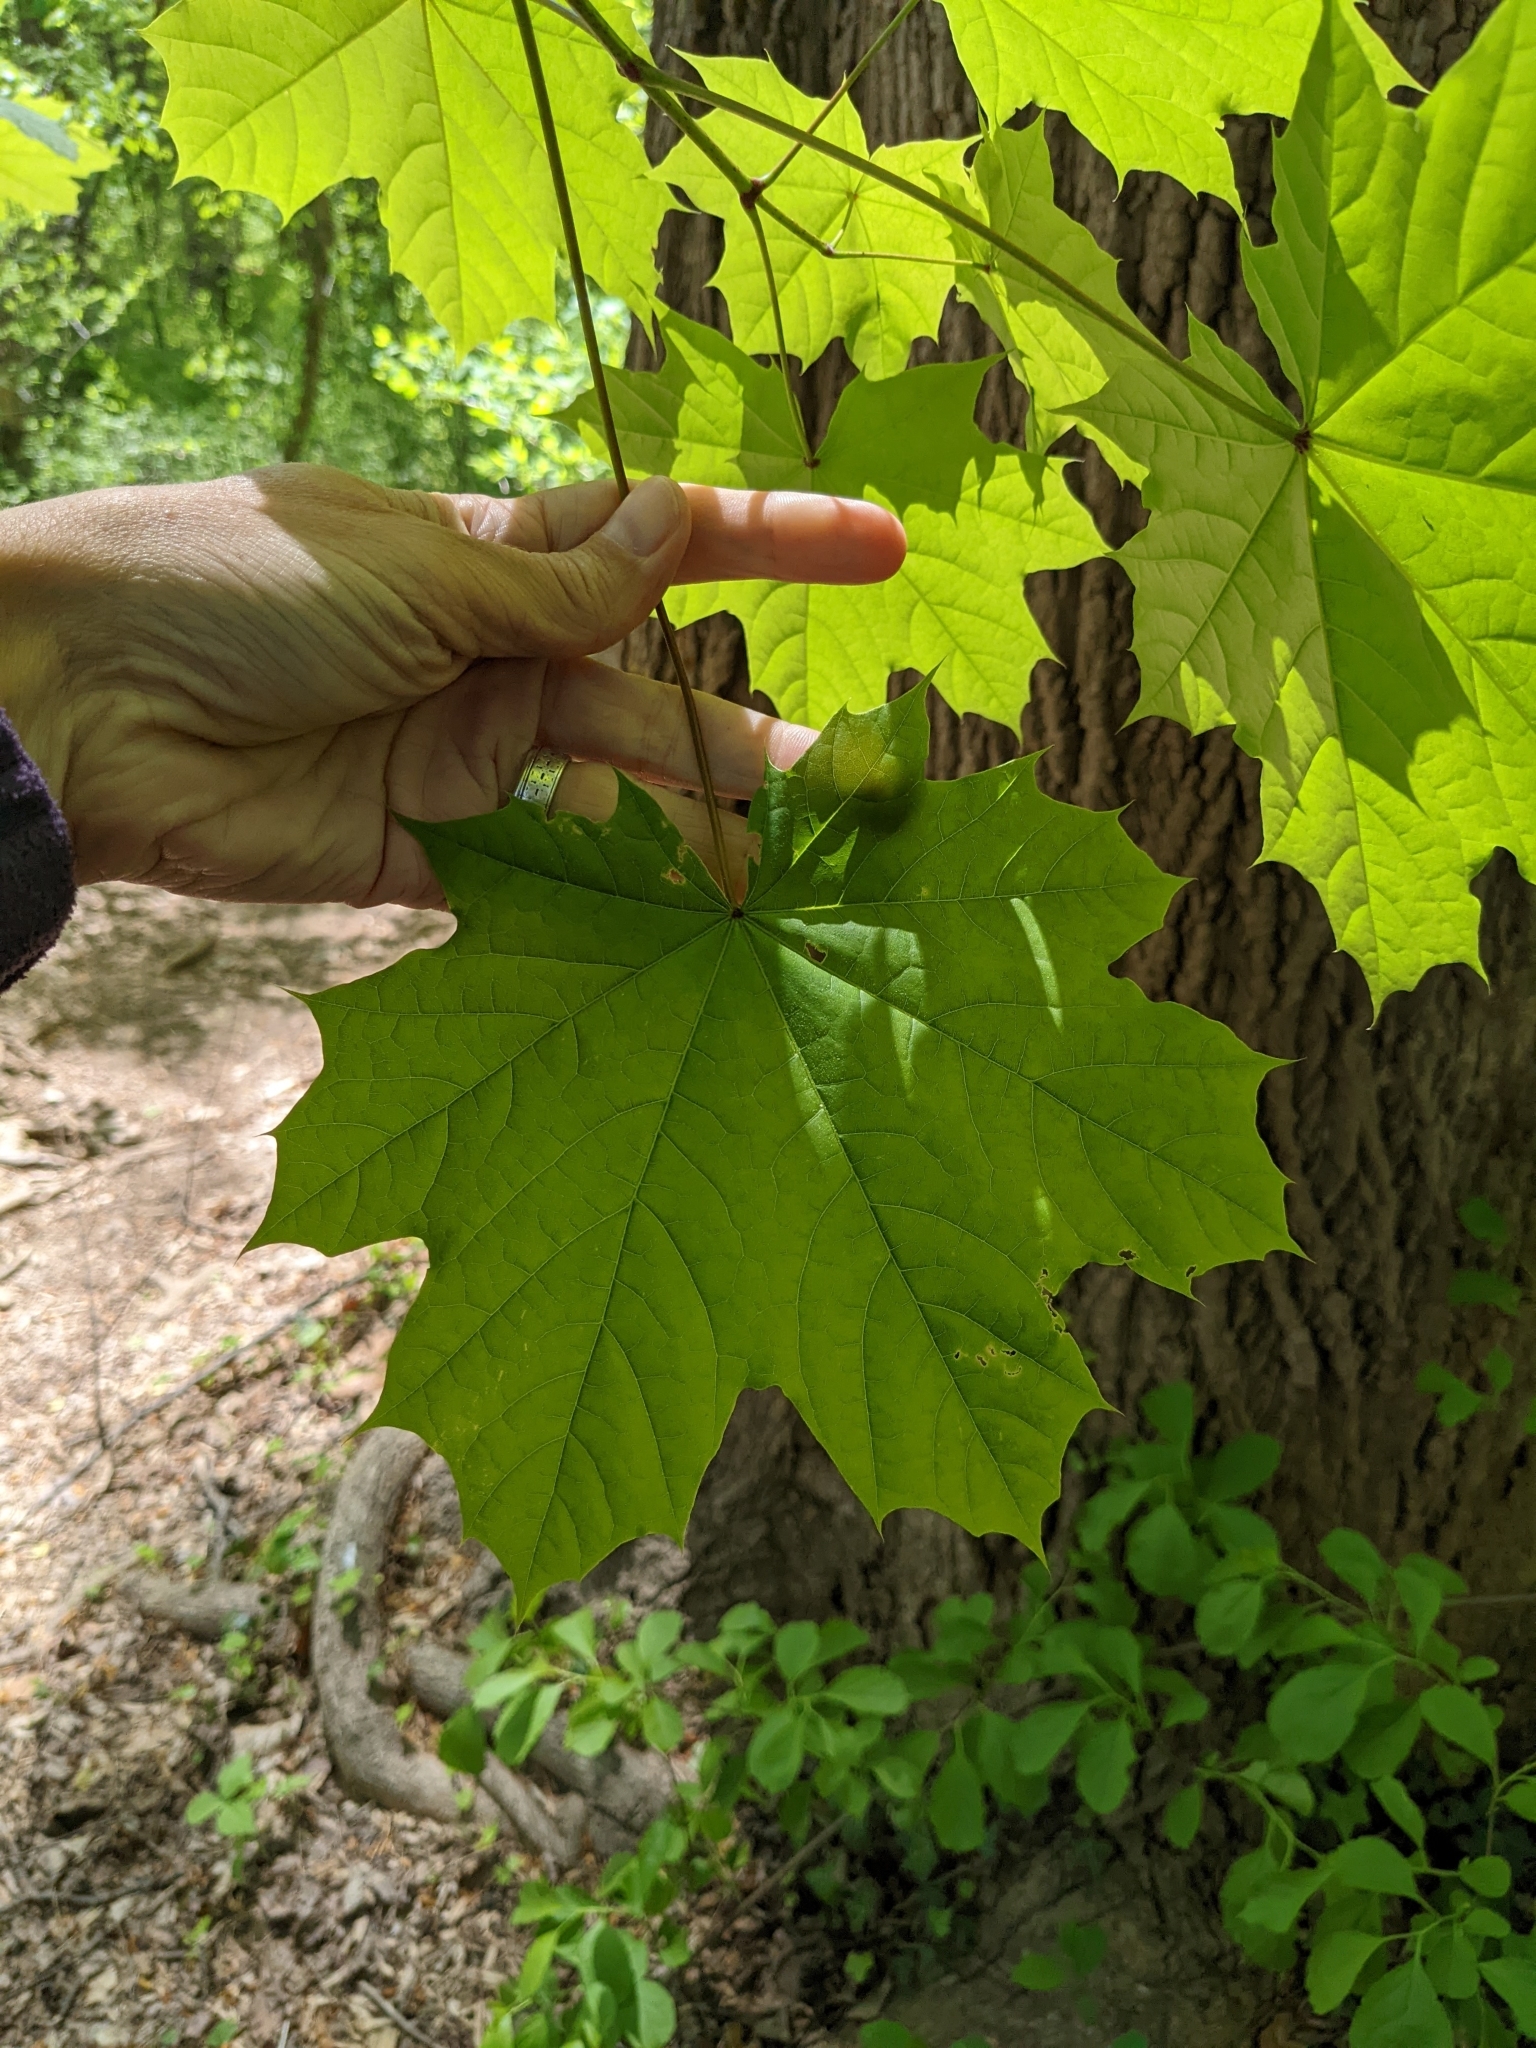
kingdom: Plantae
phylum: Tracheophyta
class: Magnoliopsida
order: Sapindales
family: Sapindaceae
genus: Acer
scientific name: Acer platanoides
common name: Norway maple
